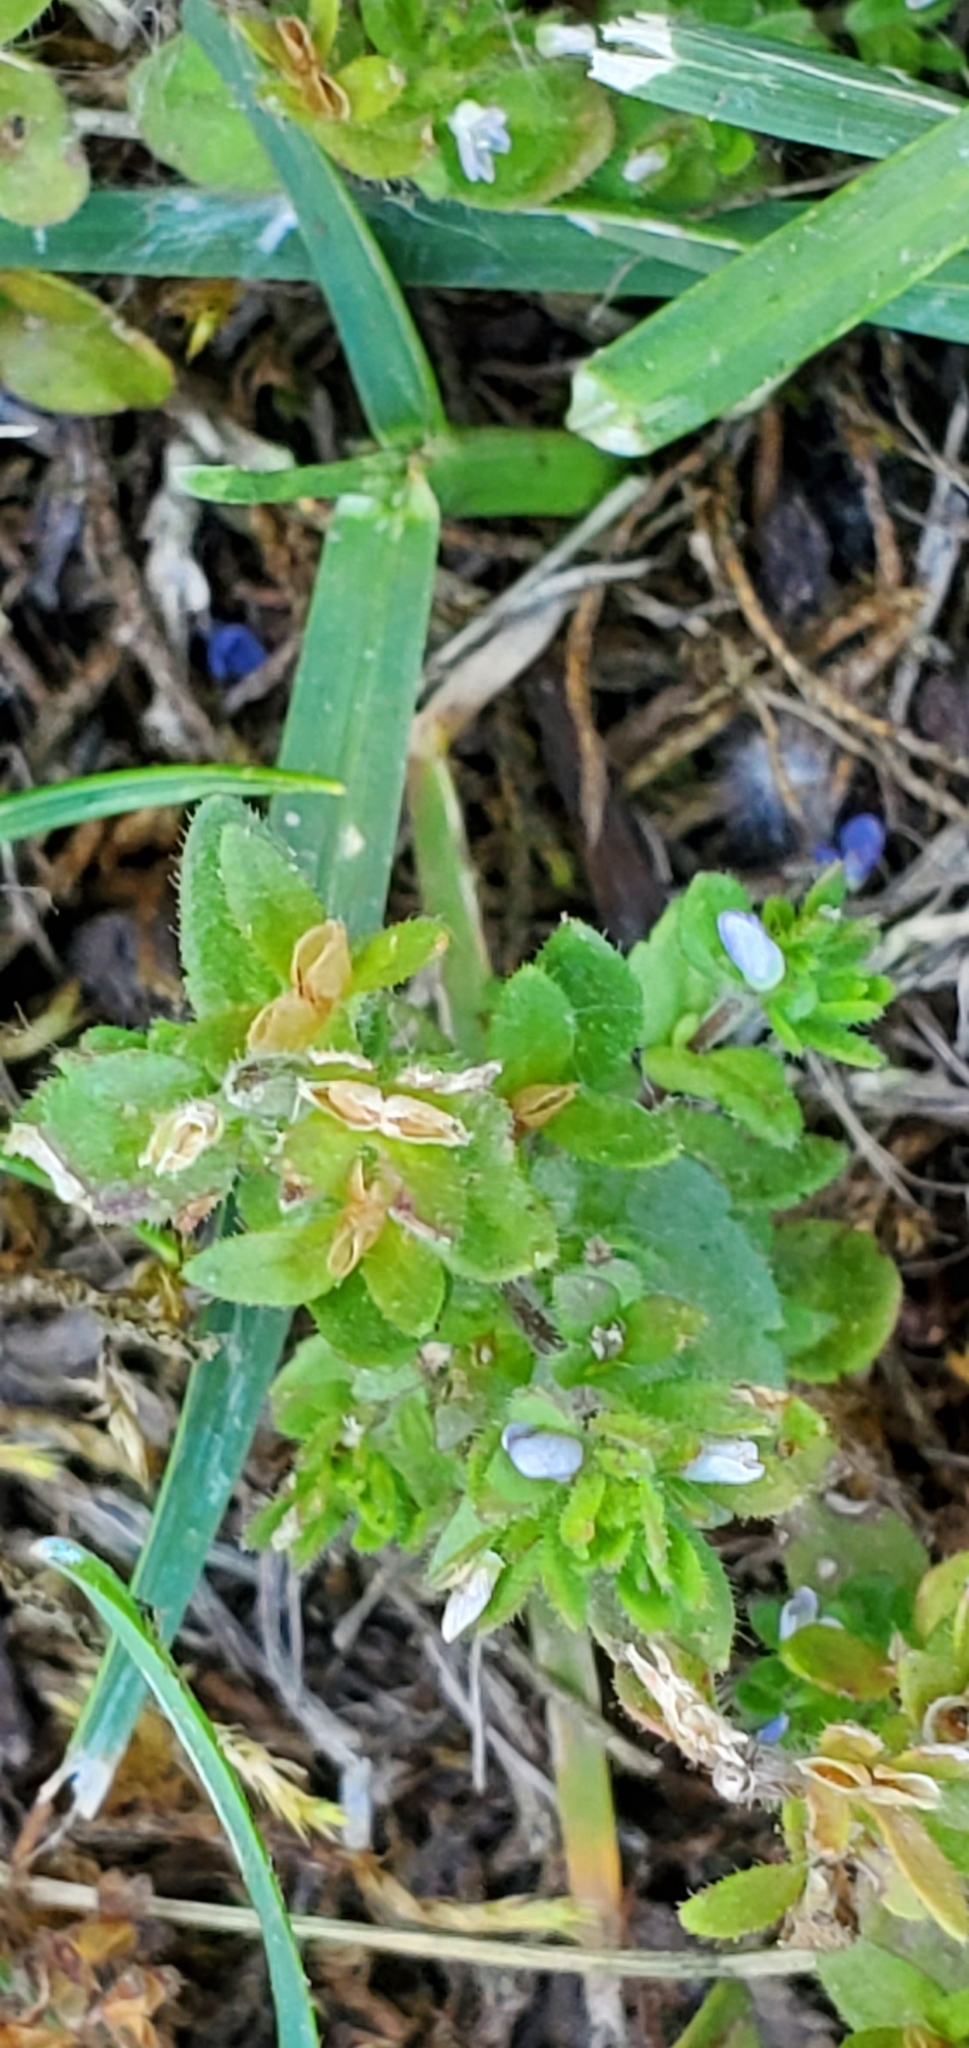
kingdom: Plantae
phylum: Tracheophyta
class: Magnoliopsida
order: Lamiales
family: Plantaginaceae
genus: Veronica
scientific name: Veronica arvensis
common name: Corn speedwell
